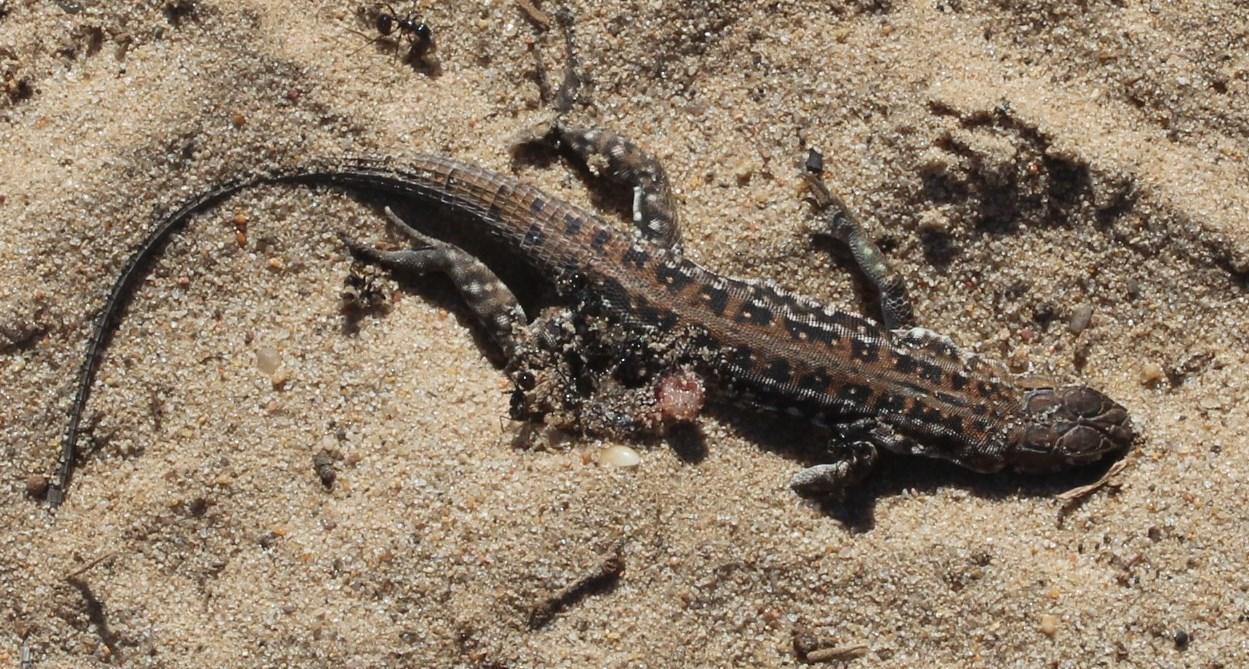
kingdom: Animalia
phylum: Chordata
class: Squamata
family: Lacertidae
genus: Meroles
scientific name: Meroles knoxii
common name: Knox's desert lizard
